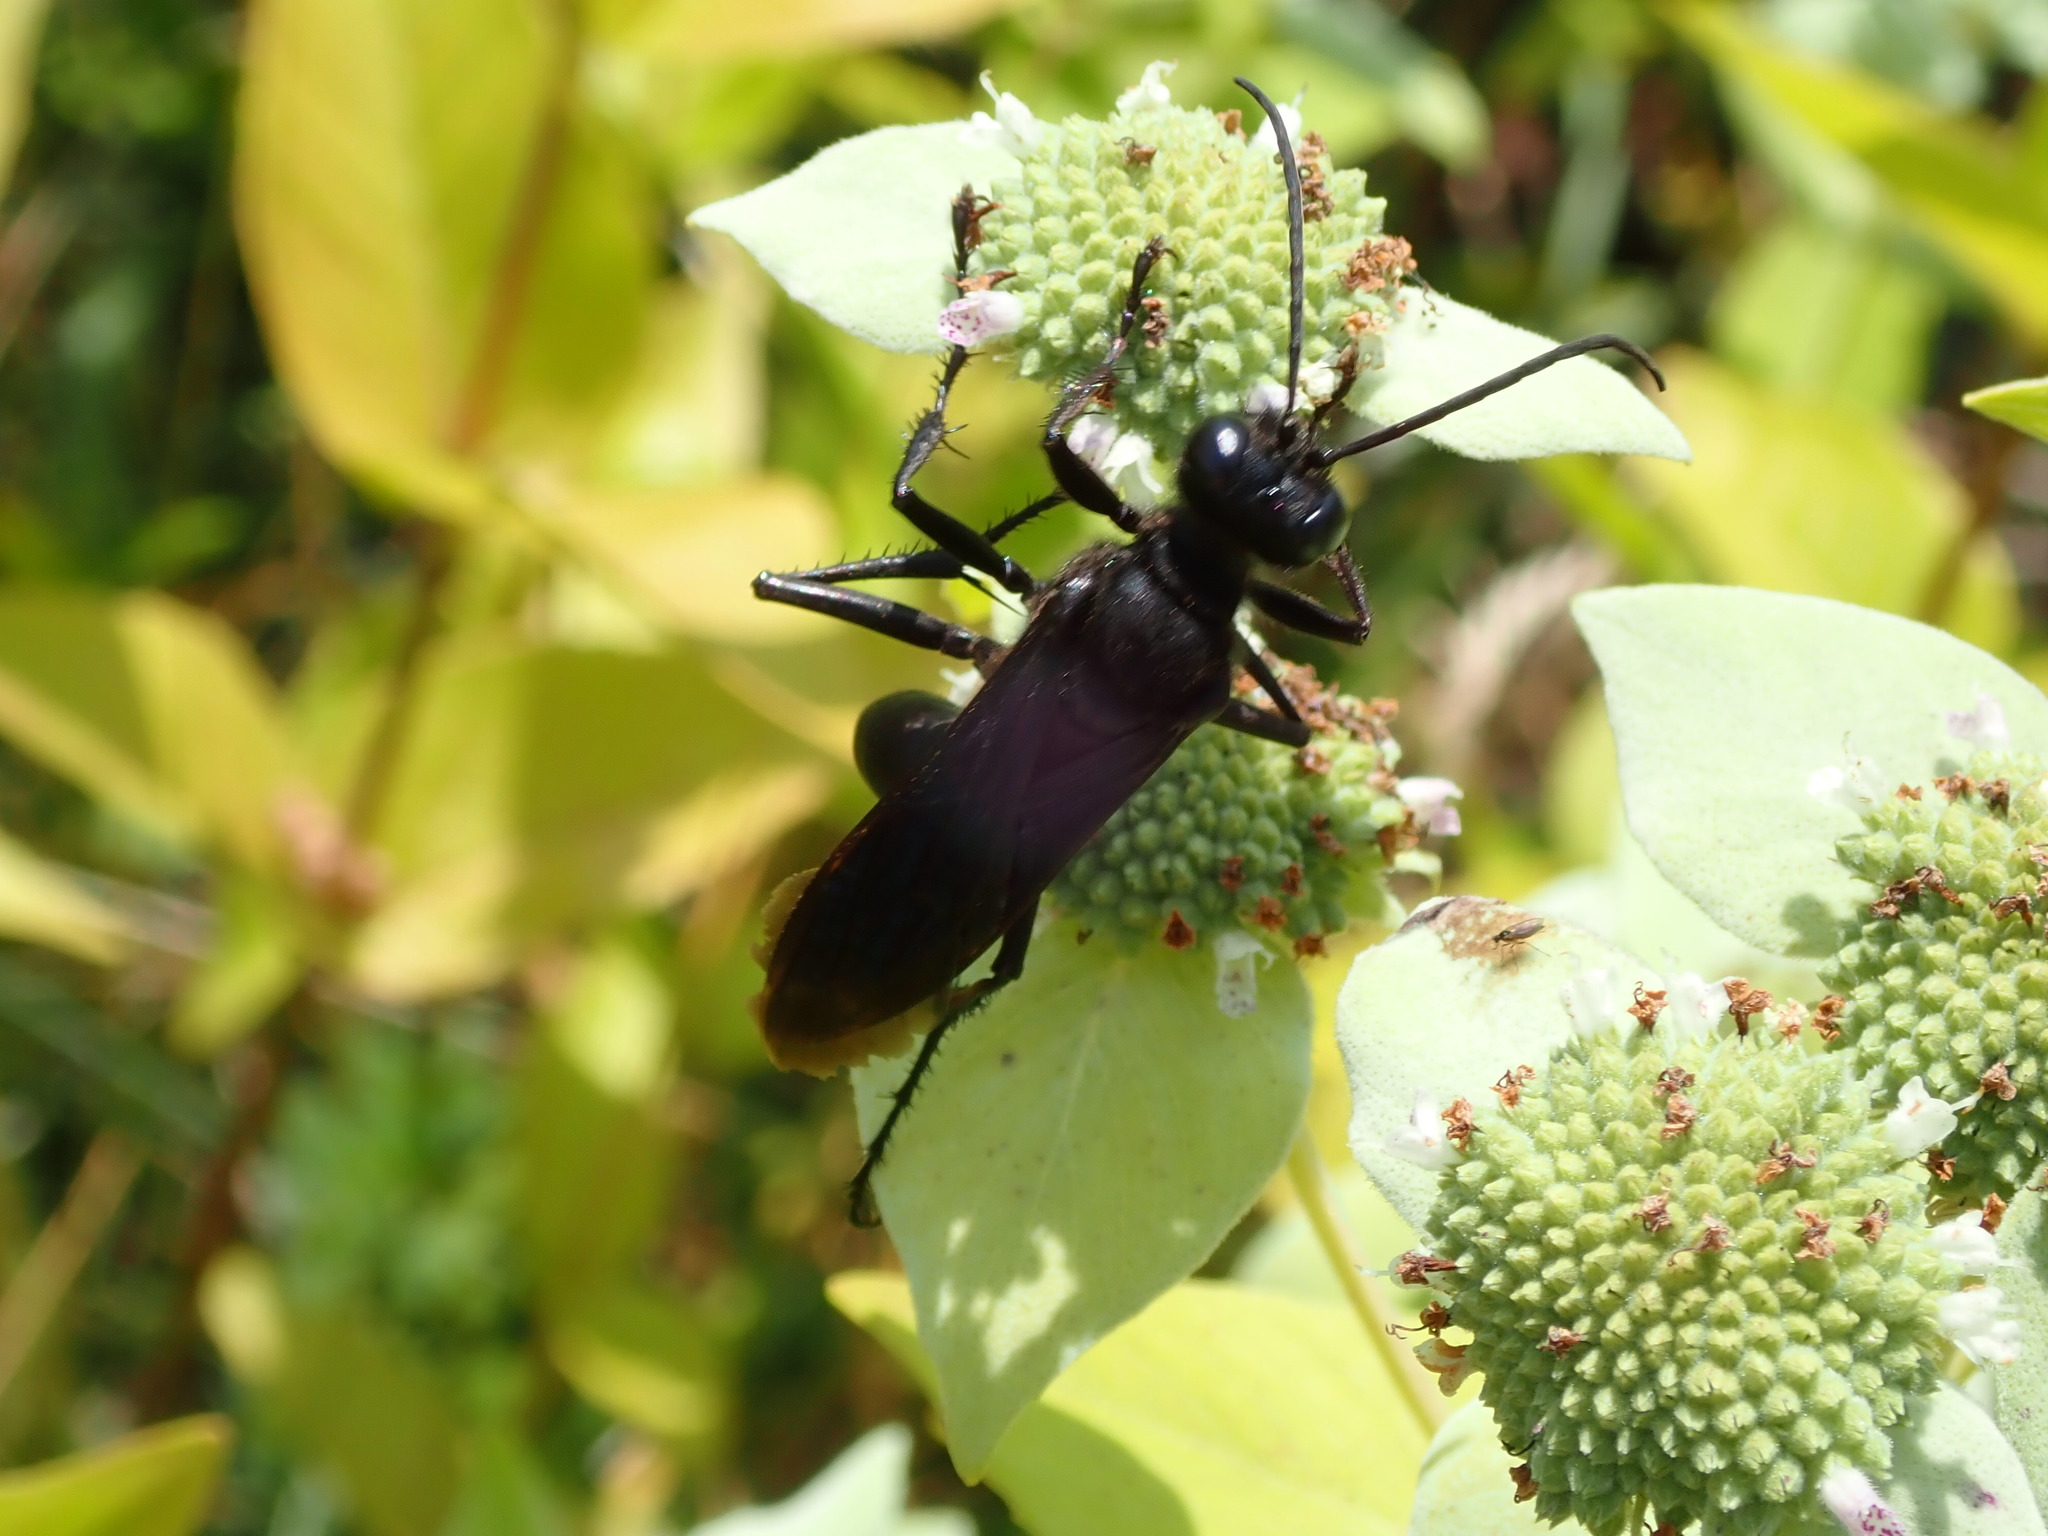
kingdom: Animalia
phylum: Arthropoda
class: Insecta
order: Hymenoptera
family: Sphecidae
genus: Sphex
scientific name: Sphex pensylvanicus
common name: Great black digger wasp
